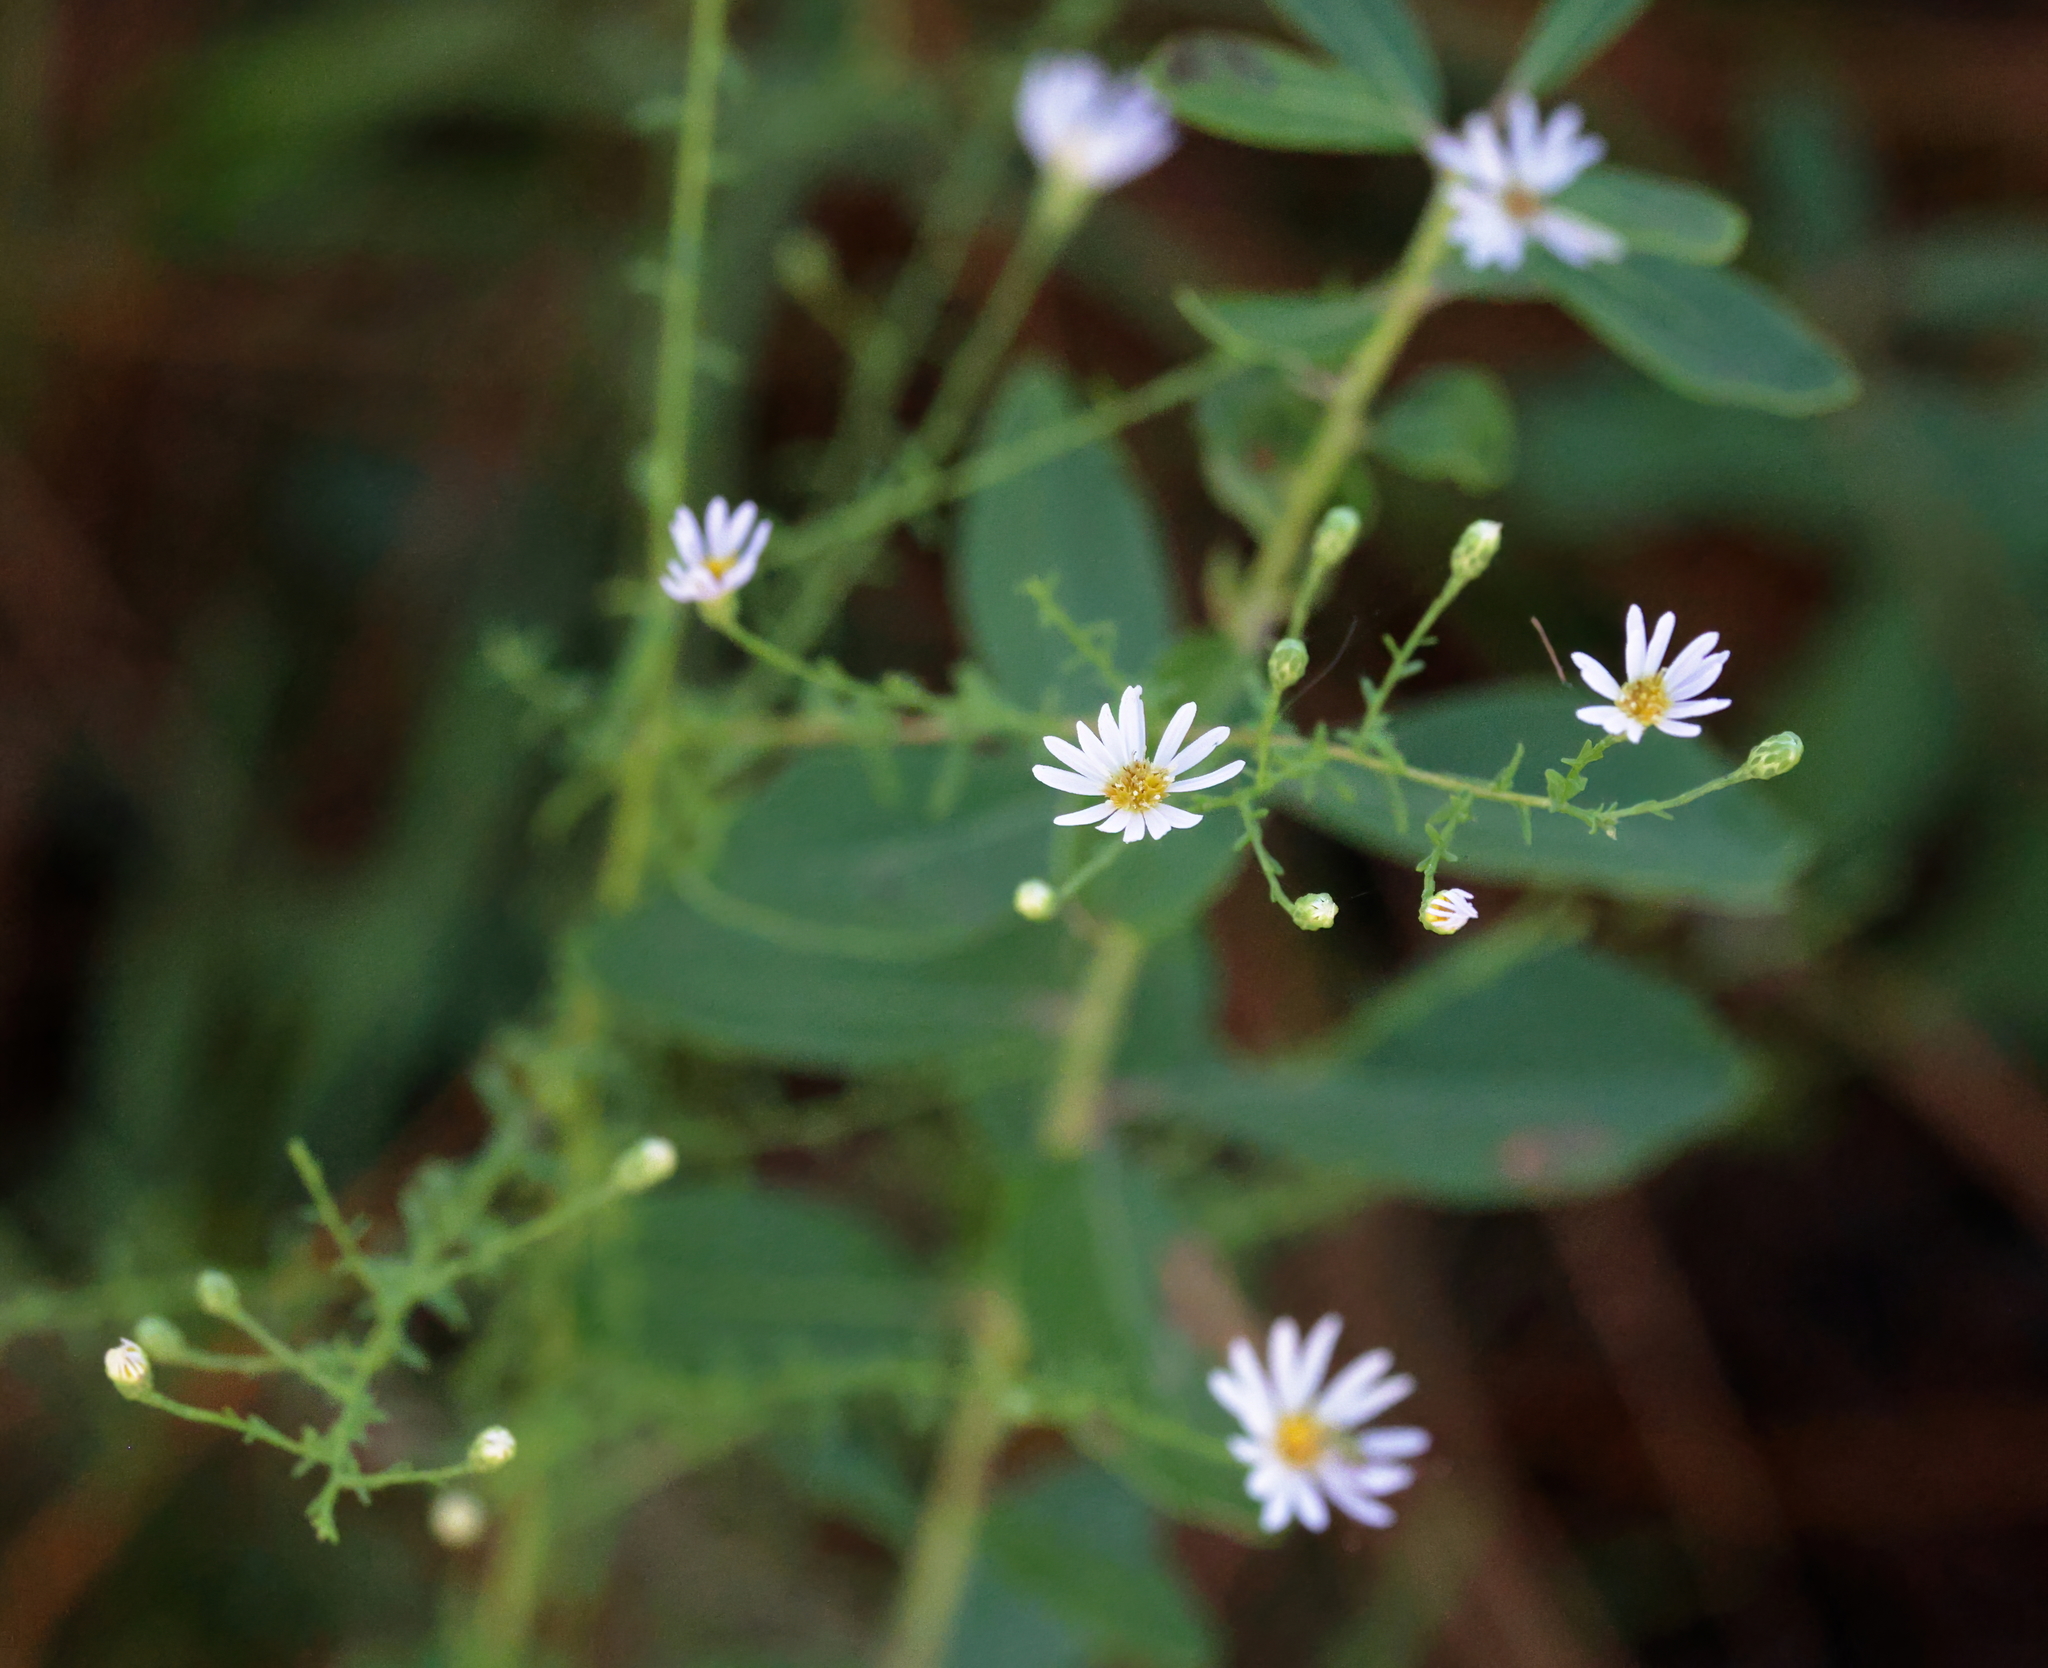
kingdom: Plantae
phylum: Tracheophyta
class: Magnoliopsida
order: Asterales
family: Asteraceae
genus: Symphyotrichum
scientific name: Symphyotrichum dumosum
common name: Bushy aster
